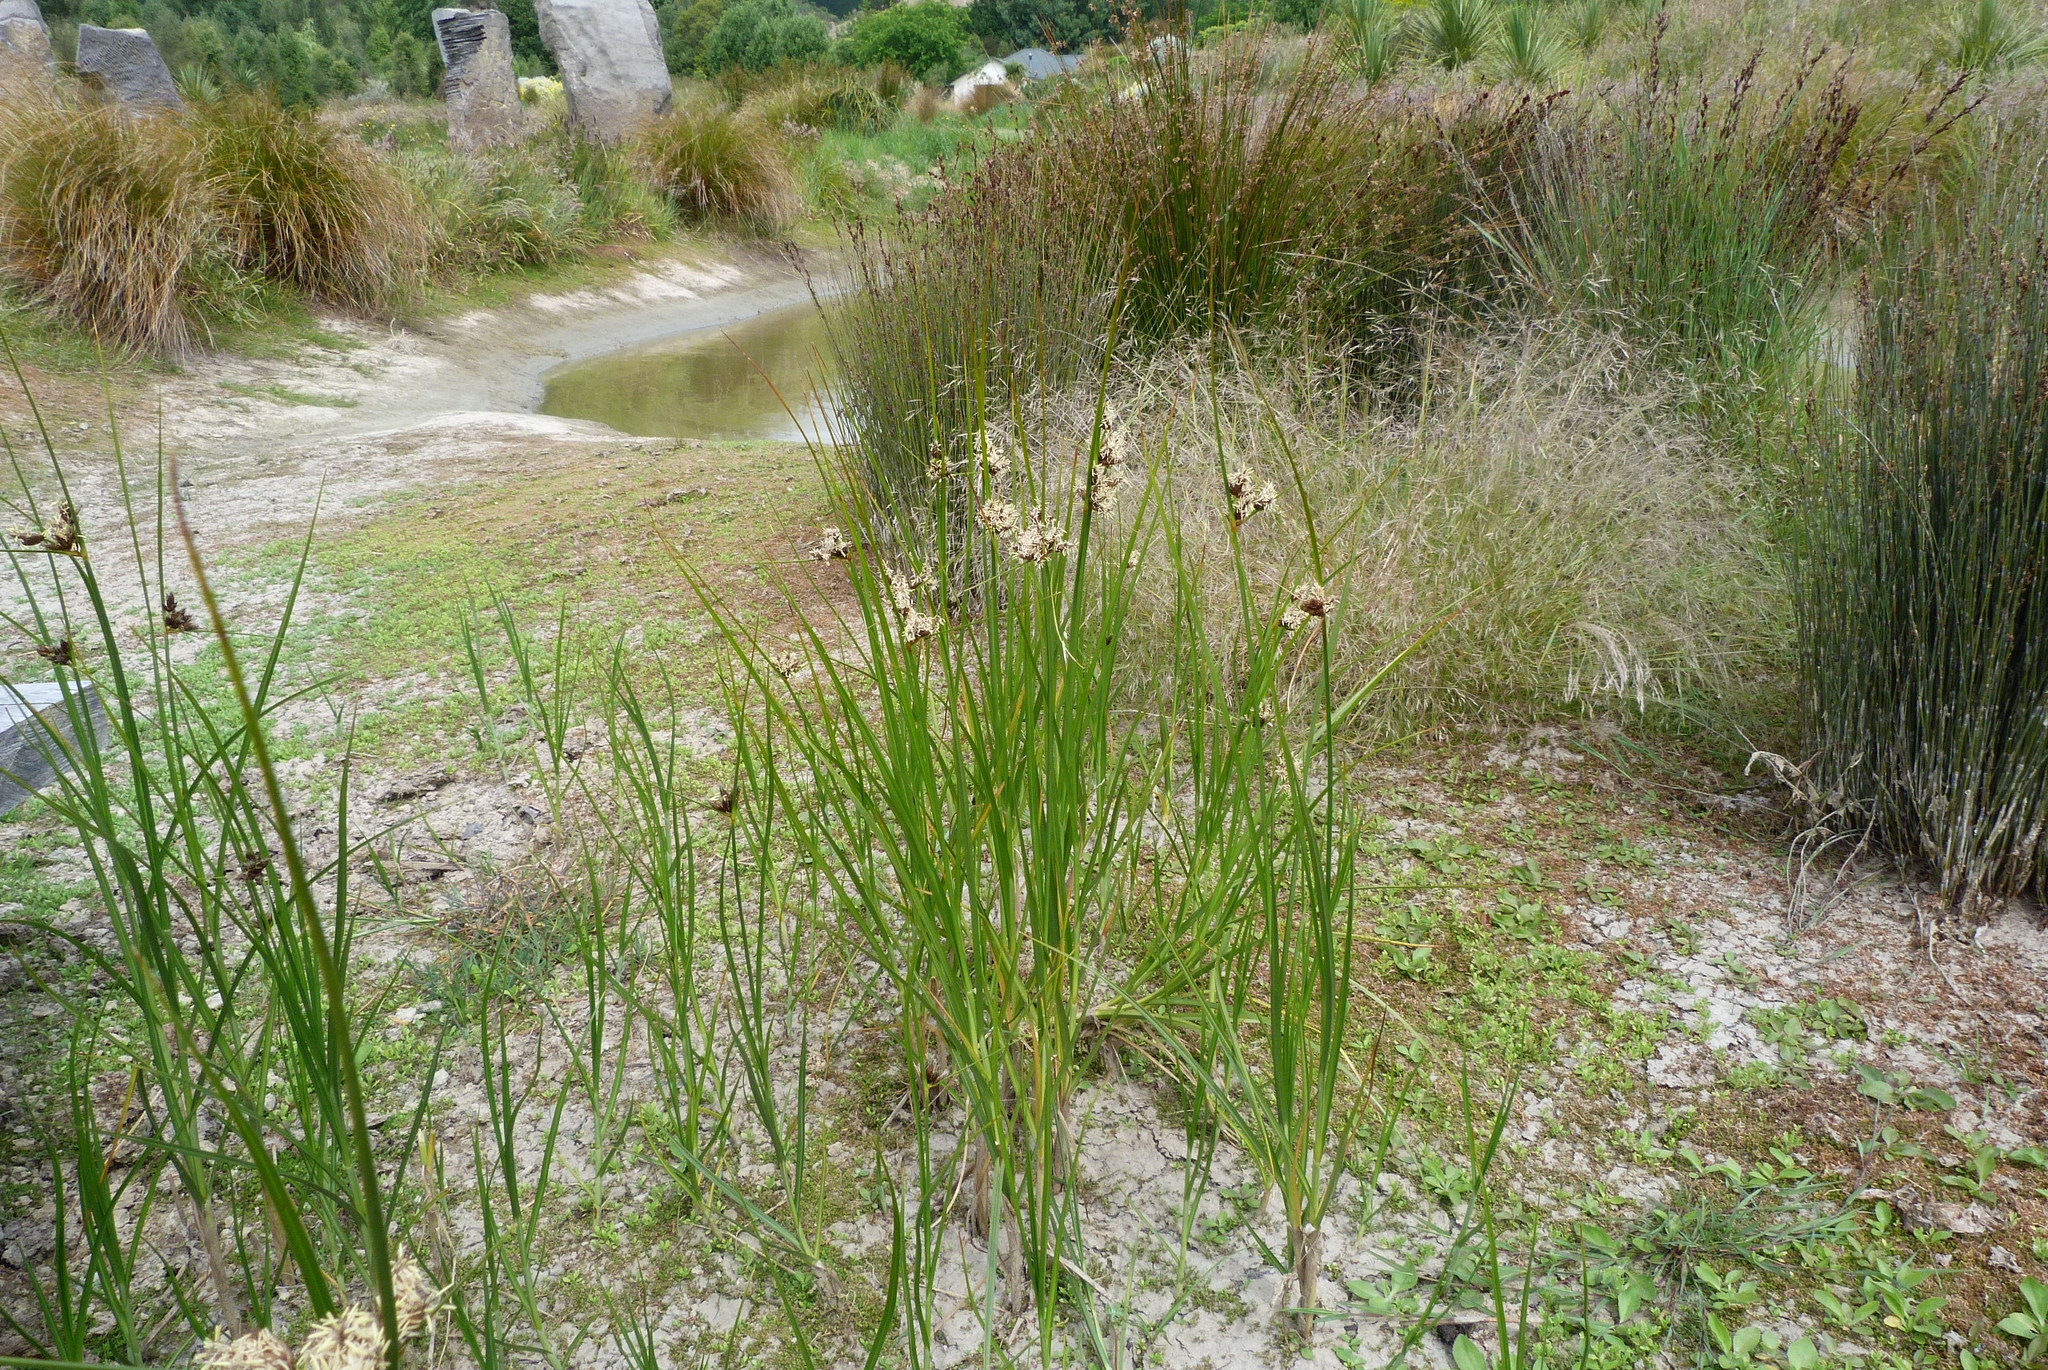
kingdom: Plantae
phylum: Tracheophyta
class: Liliopsida
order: Poales
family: Cyperaceae
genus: Bolboschoenus
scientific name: Bolboschoenus caldwellii
